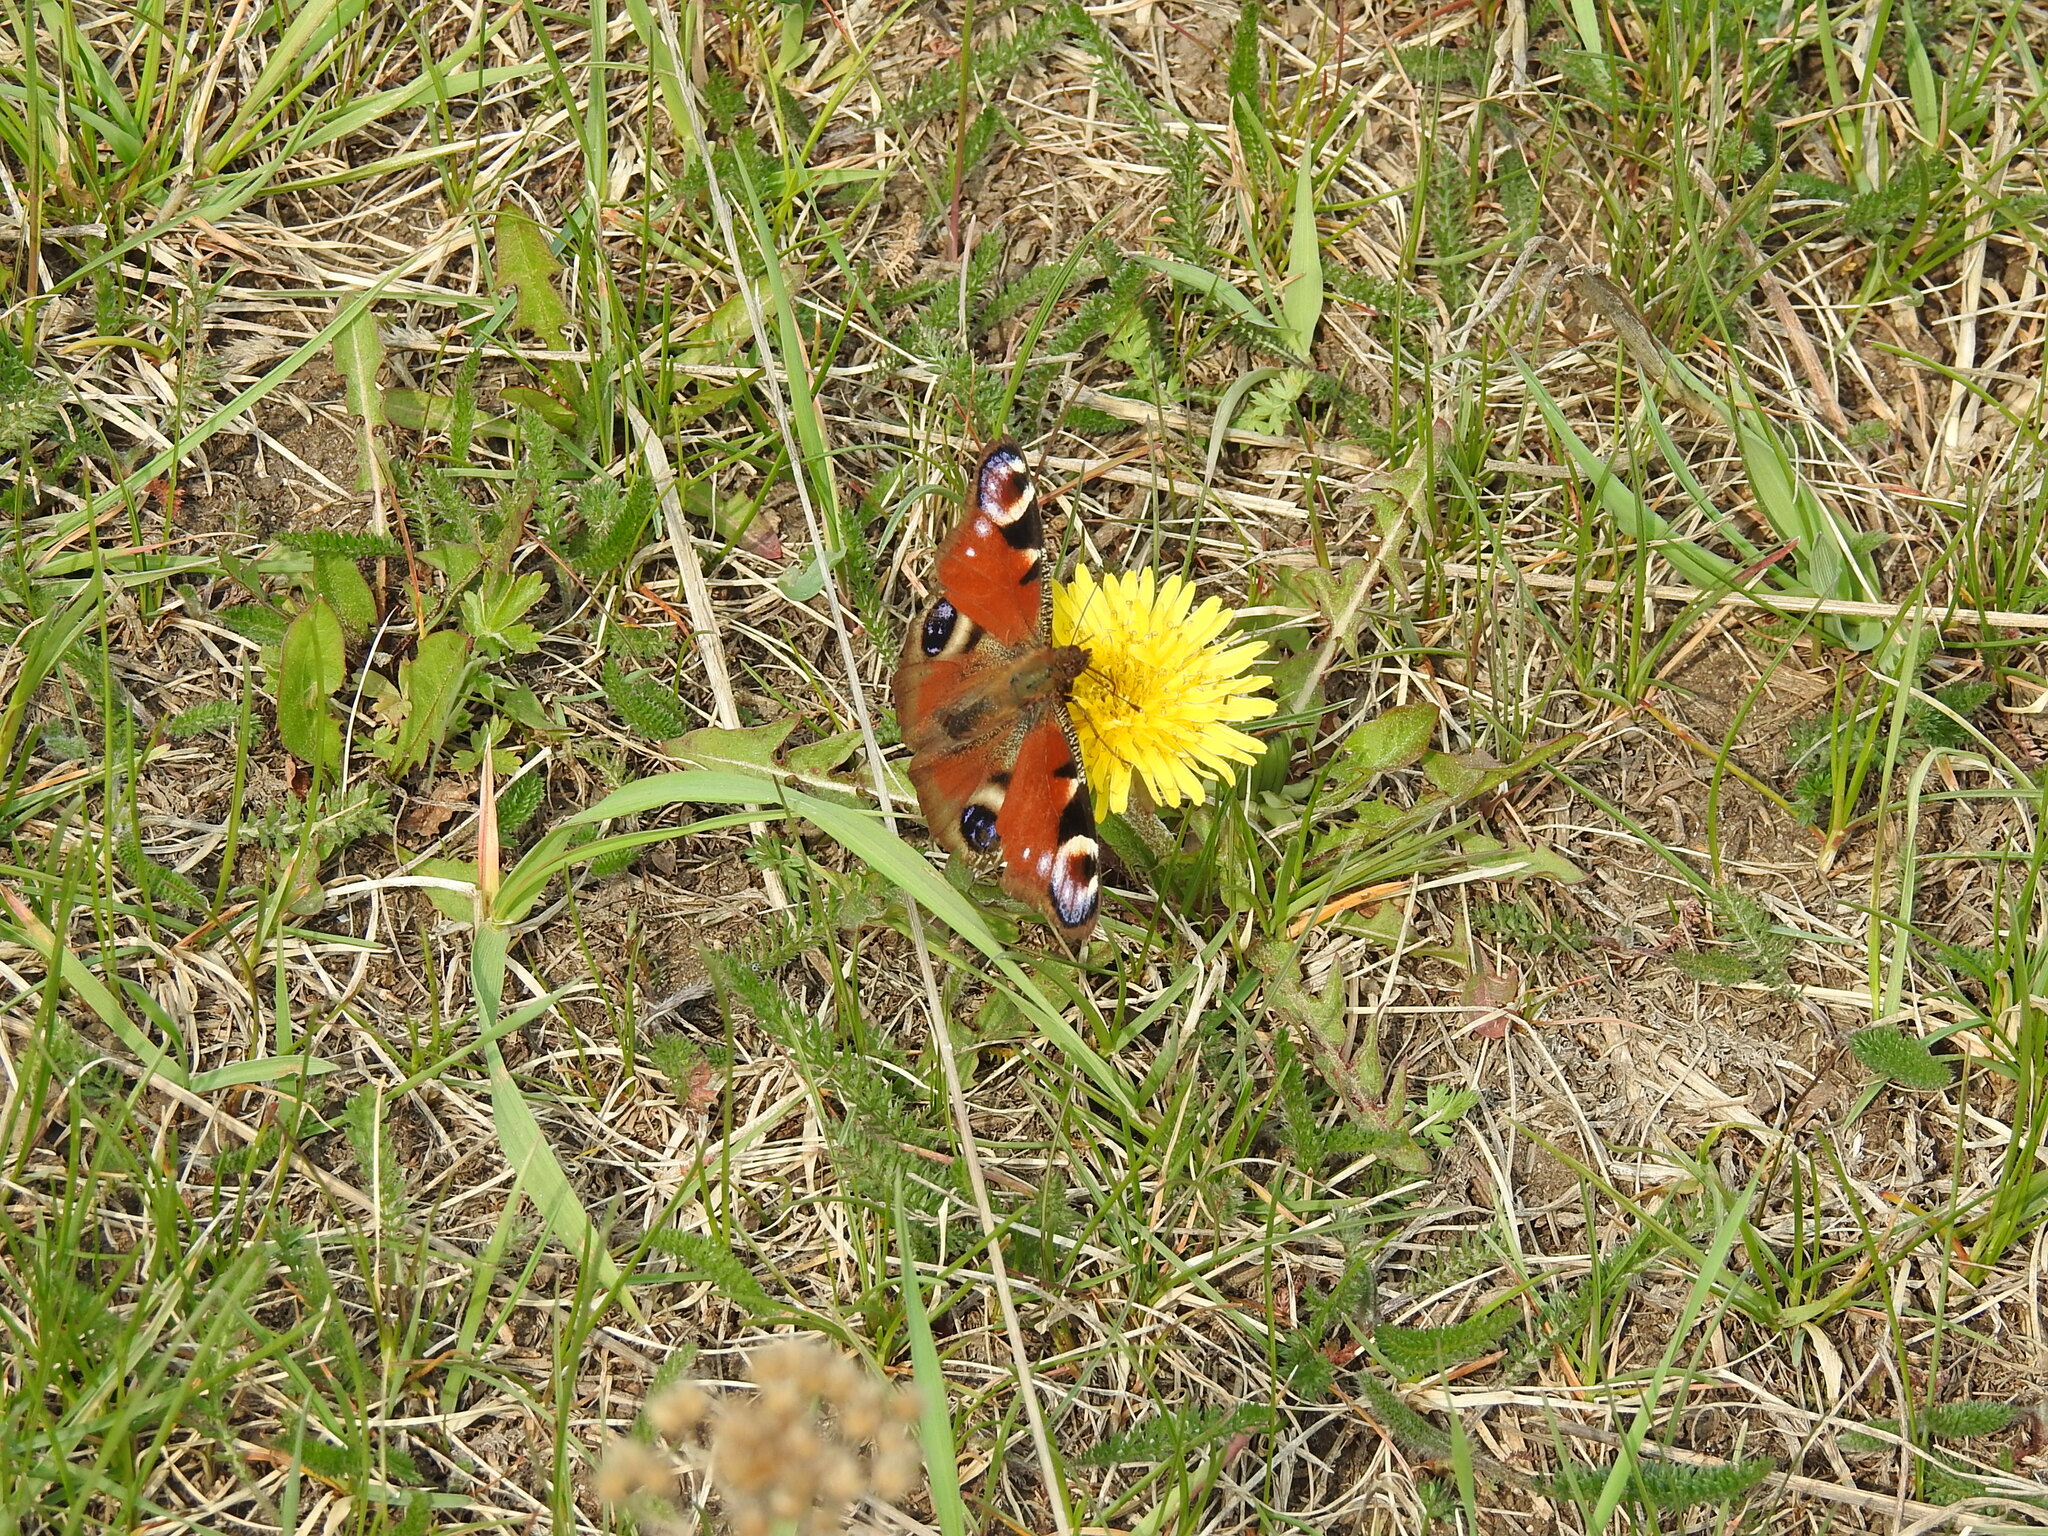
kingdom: Animalia
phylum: Arthropoda
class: Insecta
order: Lepidoptera
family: Nymphalidae
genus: Aglais
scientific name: Aglais io
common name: Peacock
